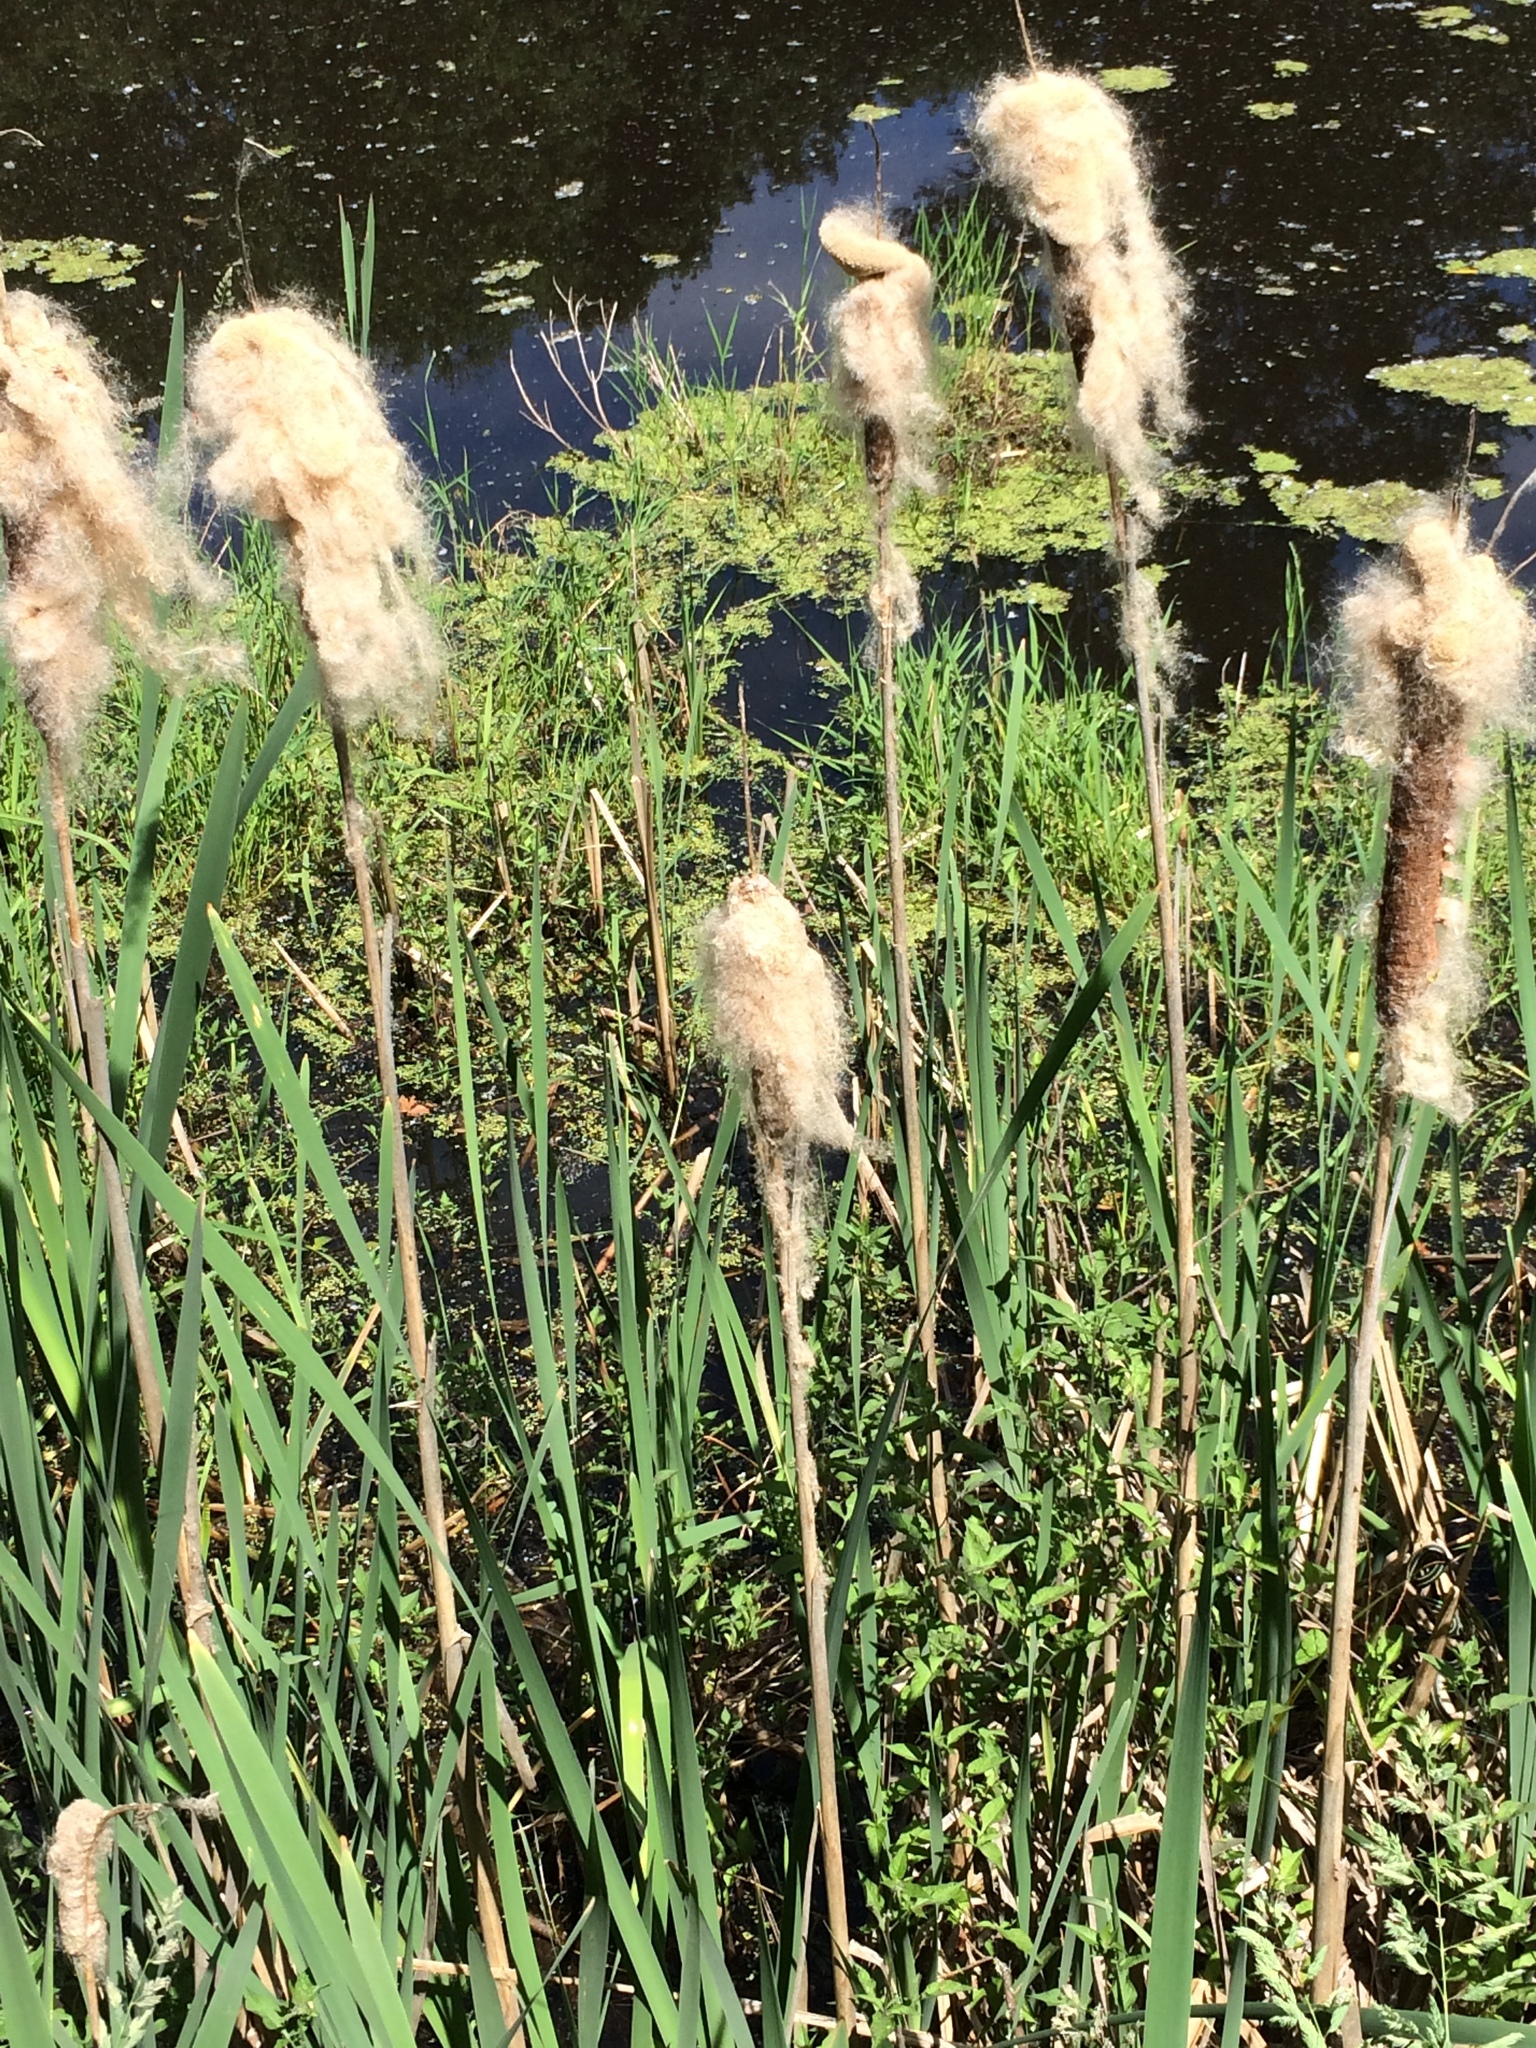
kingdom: Plantae
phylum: Tracheophyta
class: Liliopsida
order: Poales
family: Typhaceae
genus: Typha
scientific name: Typha latifolia
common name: Broadleaf cattail
